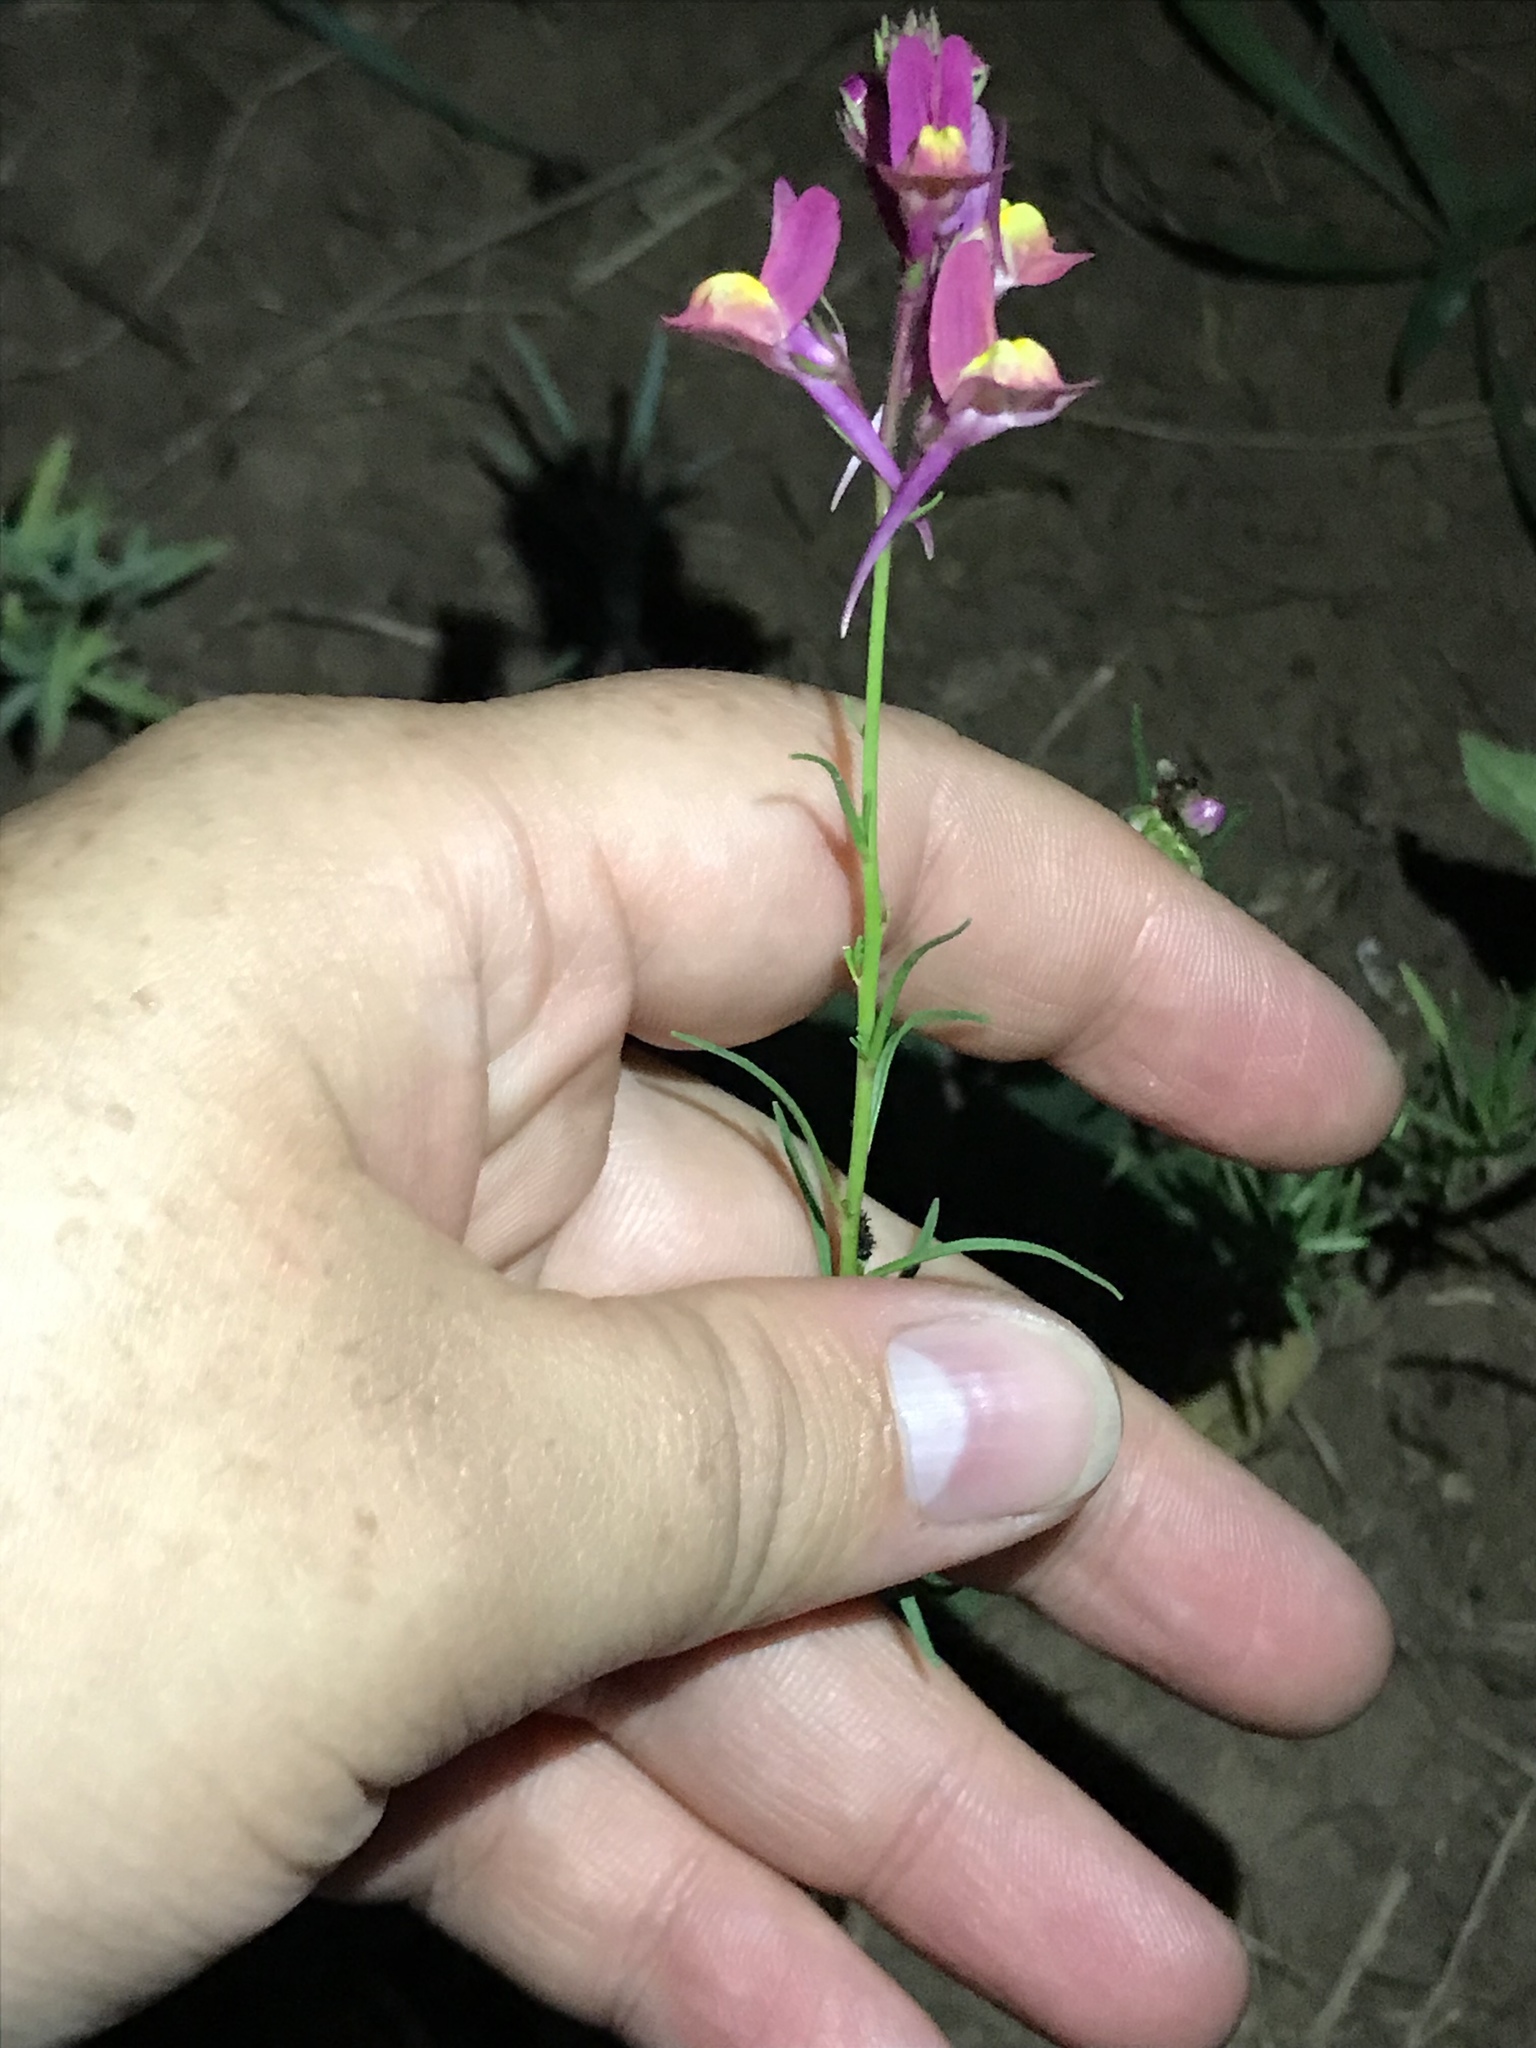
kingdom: Plantae
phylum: Tracheophyta
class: Magnoliopsida
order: Lamiales
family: Plantaginaceae
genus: Linaria
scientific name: Linaria maroccana
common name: Moroccan toadflax
